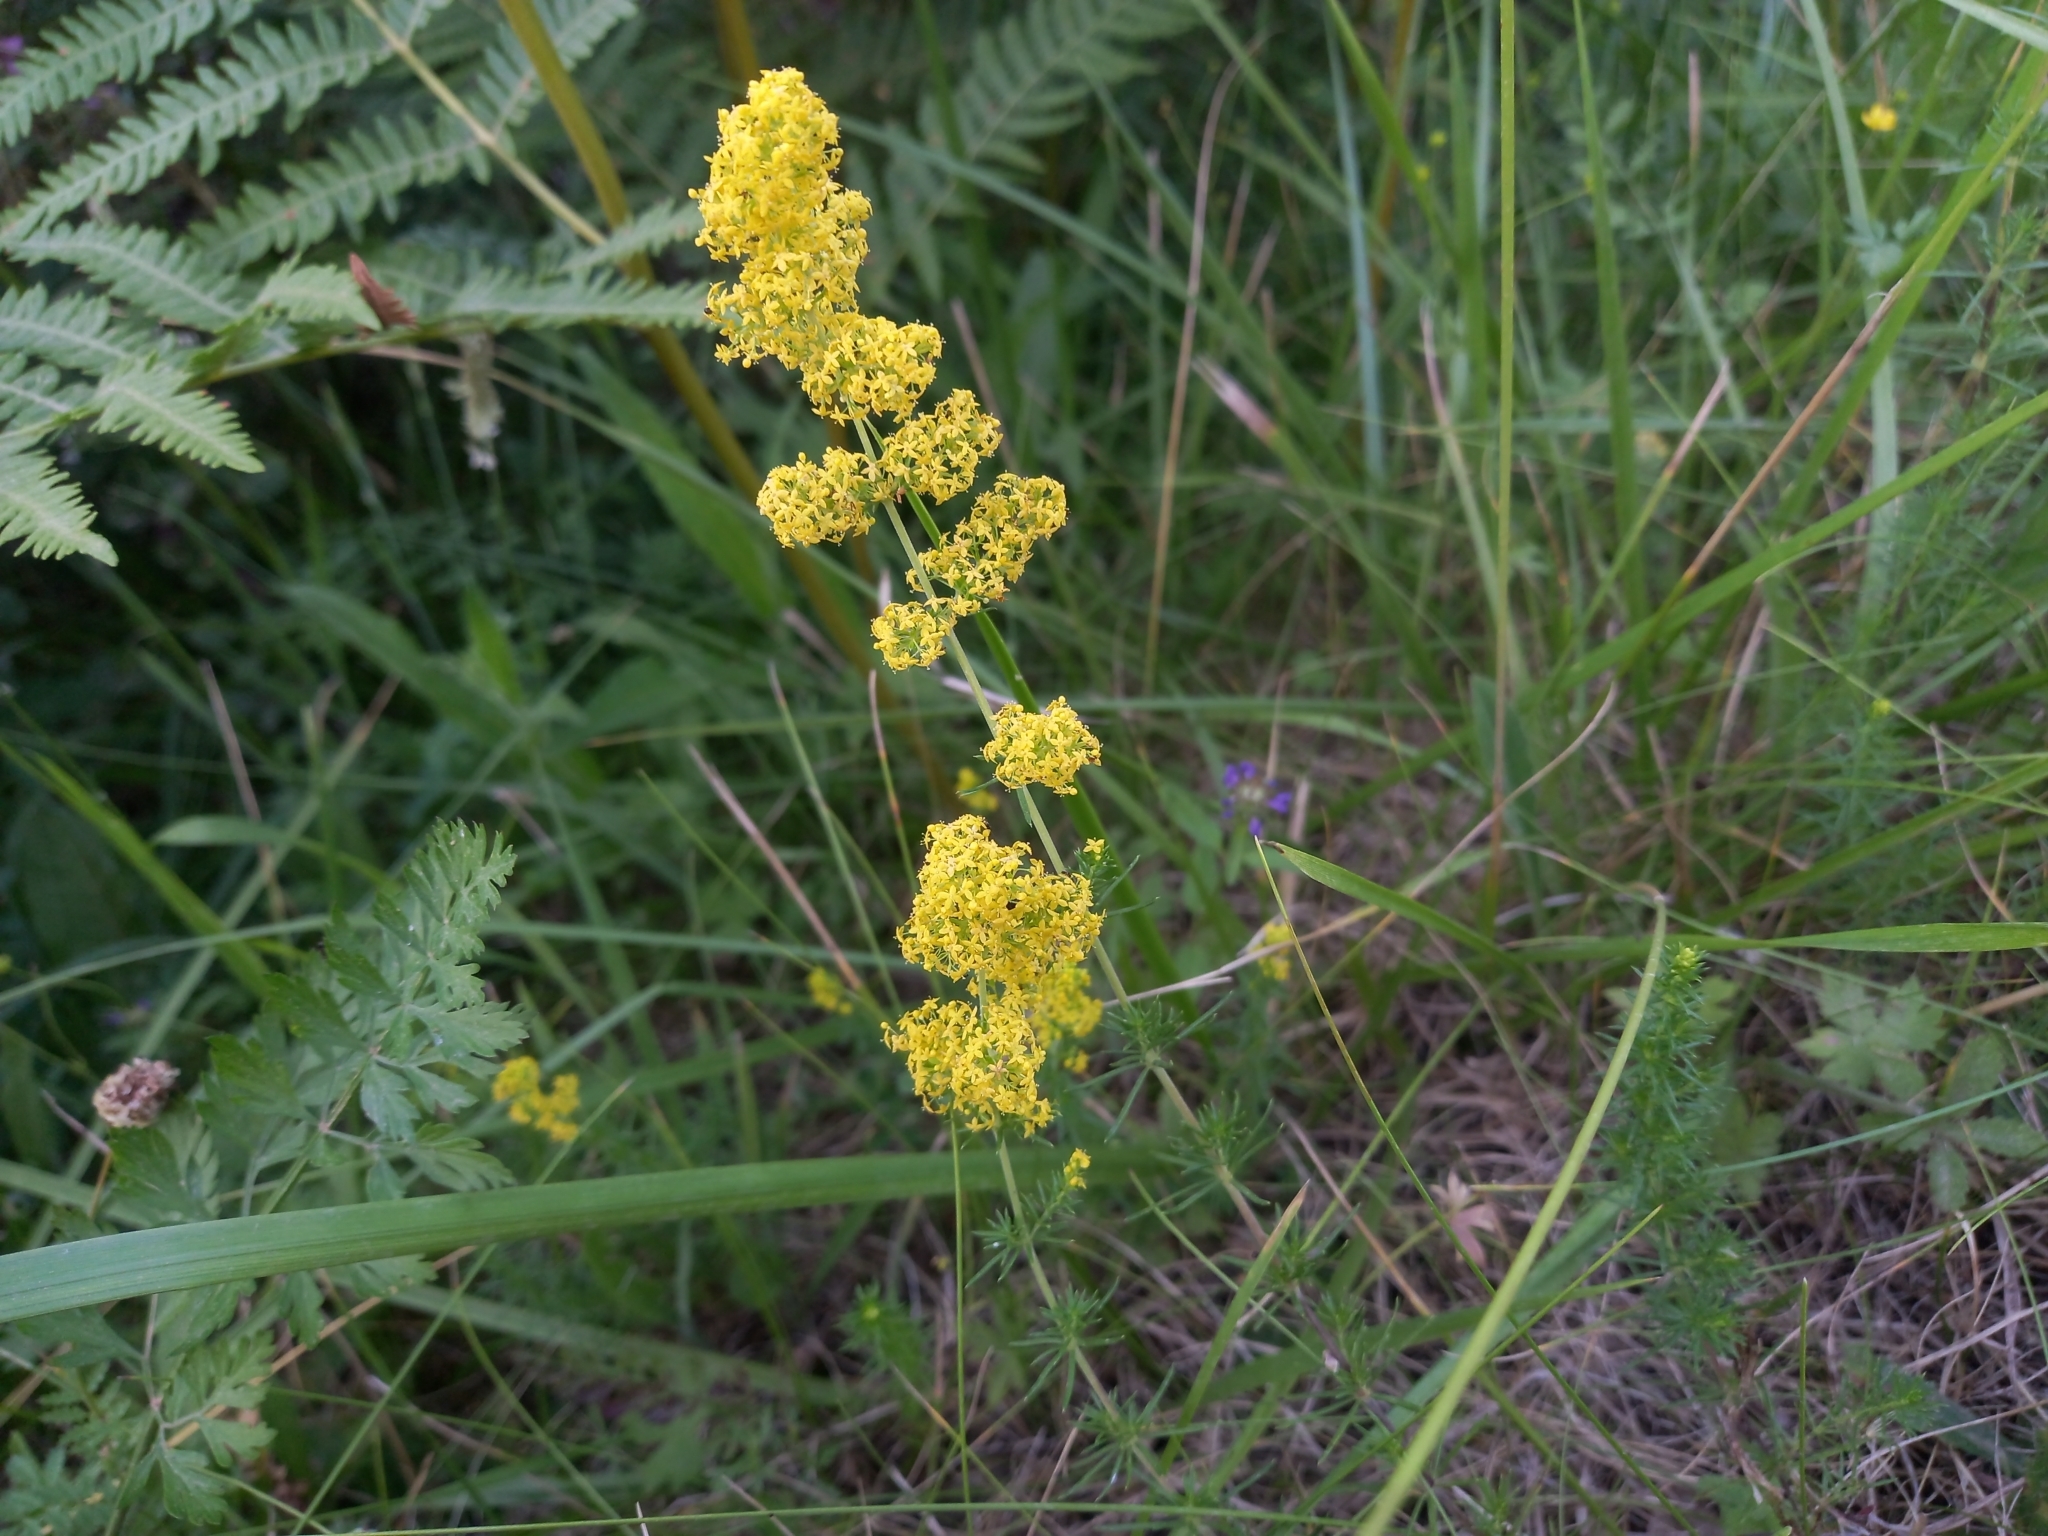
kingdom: Plantae
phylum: Tracheophyta
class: Magnoliopsida
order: Gentianales
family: Rubiaceae
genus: Galium
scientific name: Galium verum
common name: Lady's bedstraw
